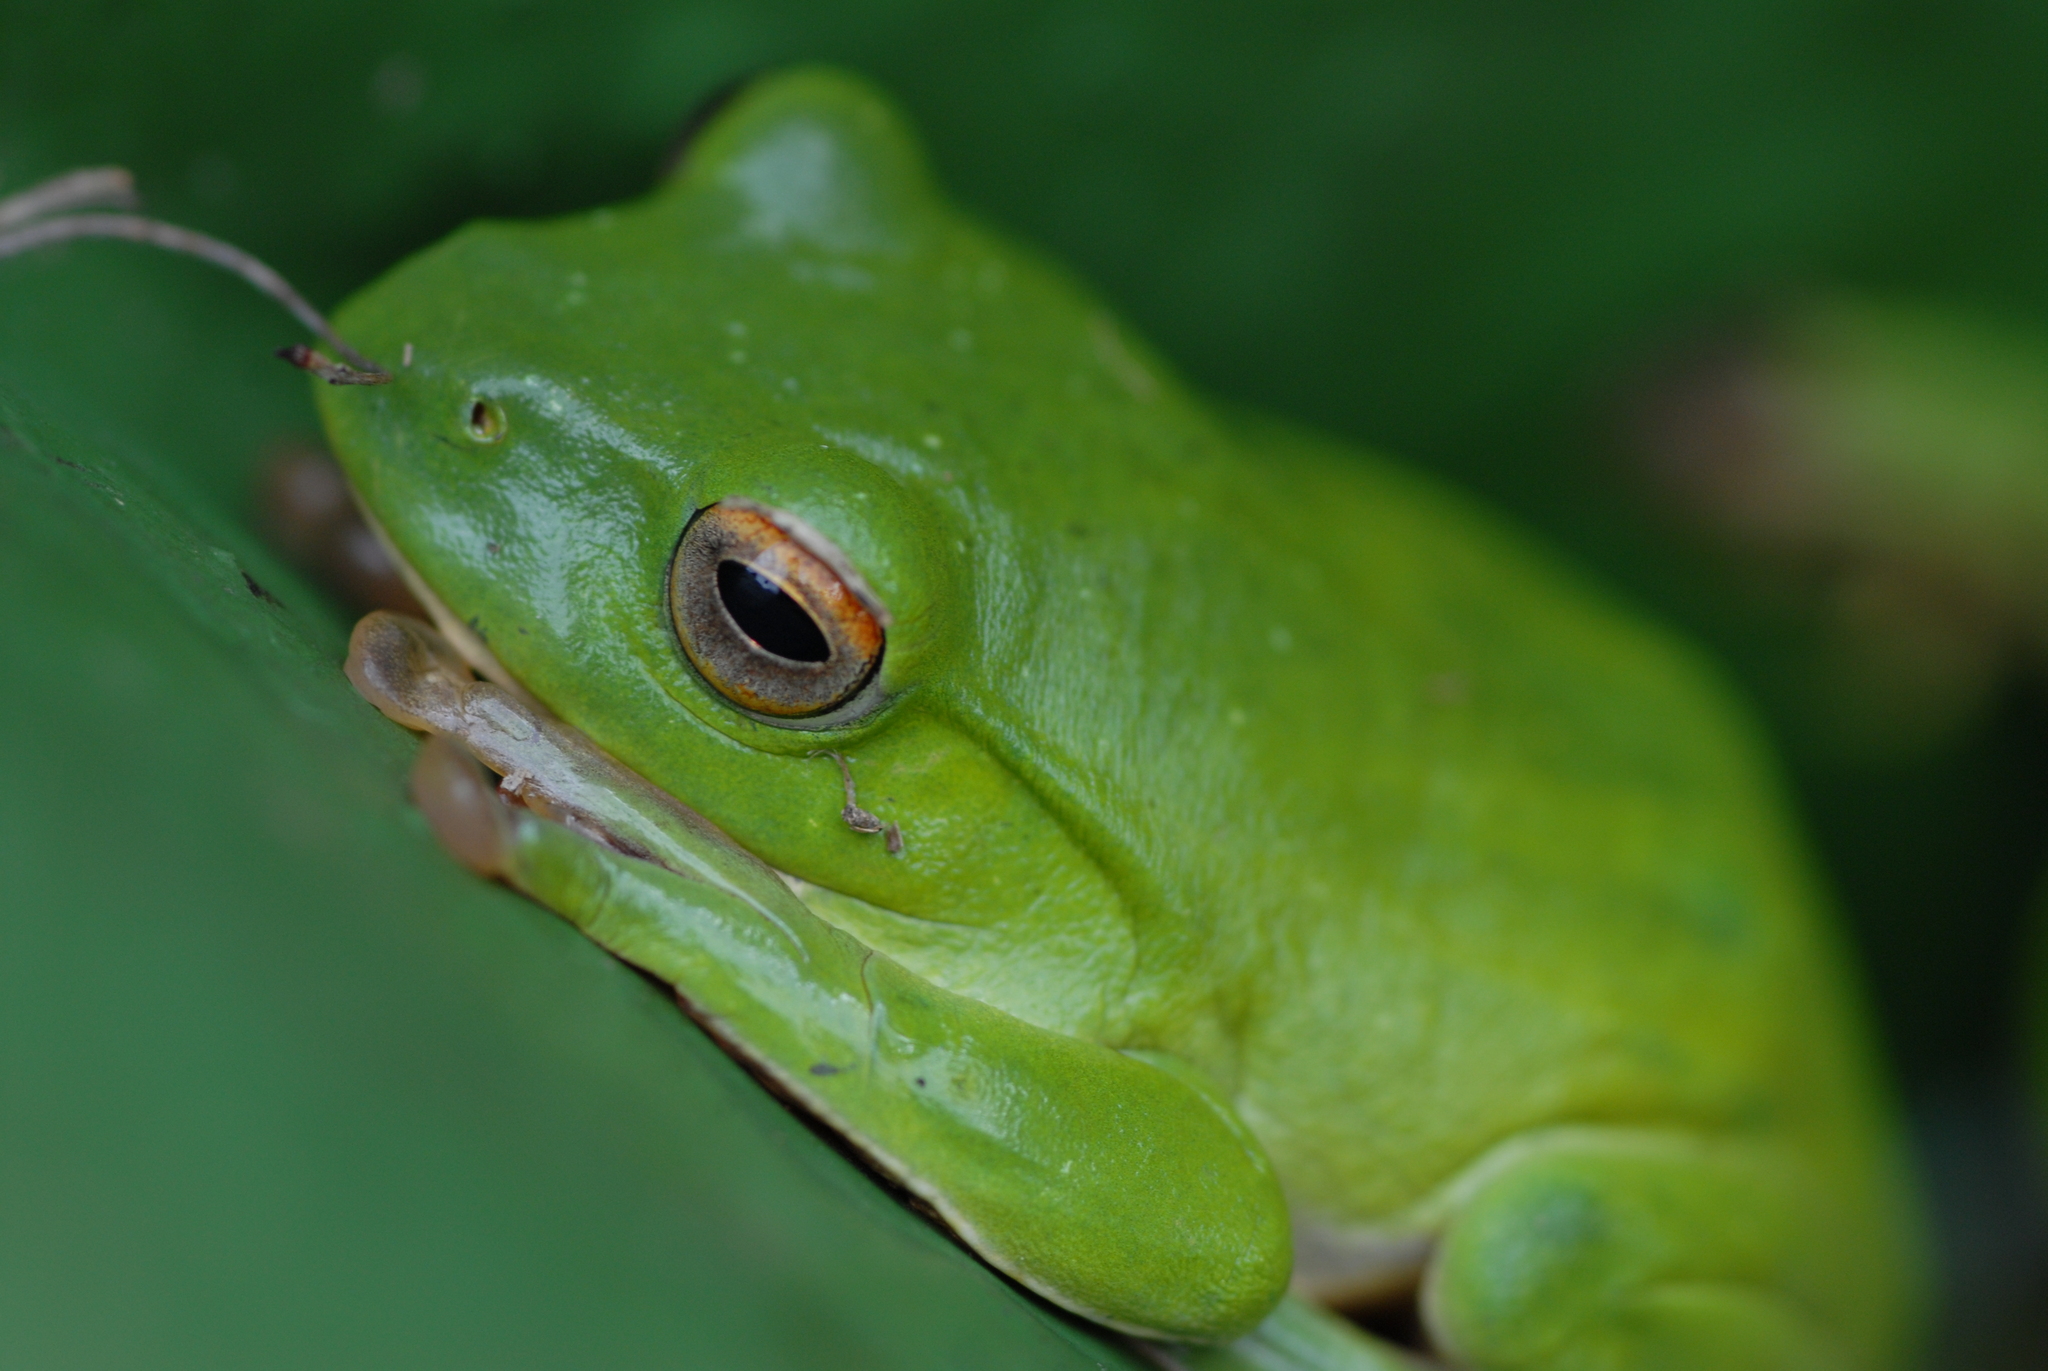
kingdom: Animalia
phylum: Chordata
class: Amphibia
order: Anura
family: Rhacophoridae
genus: Zhangixalus
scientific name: Zhangixalus moltrechti
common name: Moltrecht's treefrog
